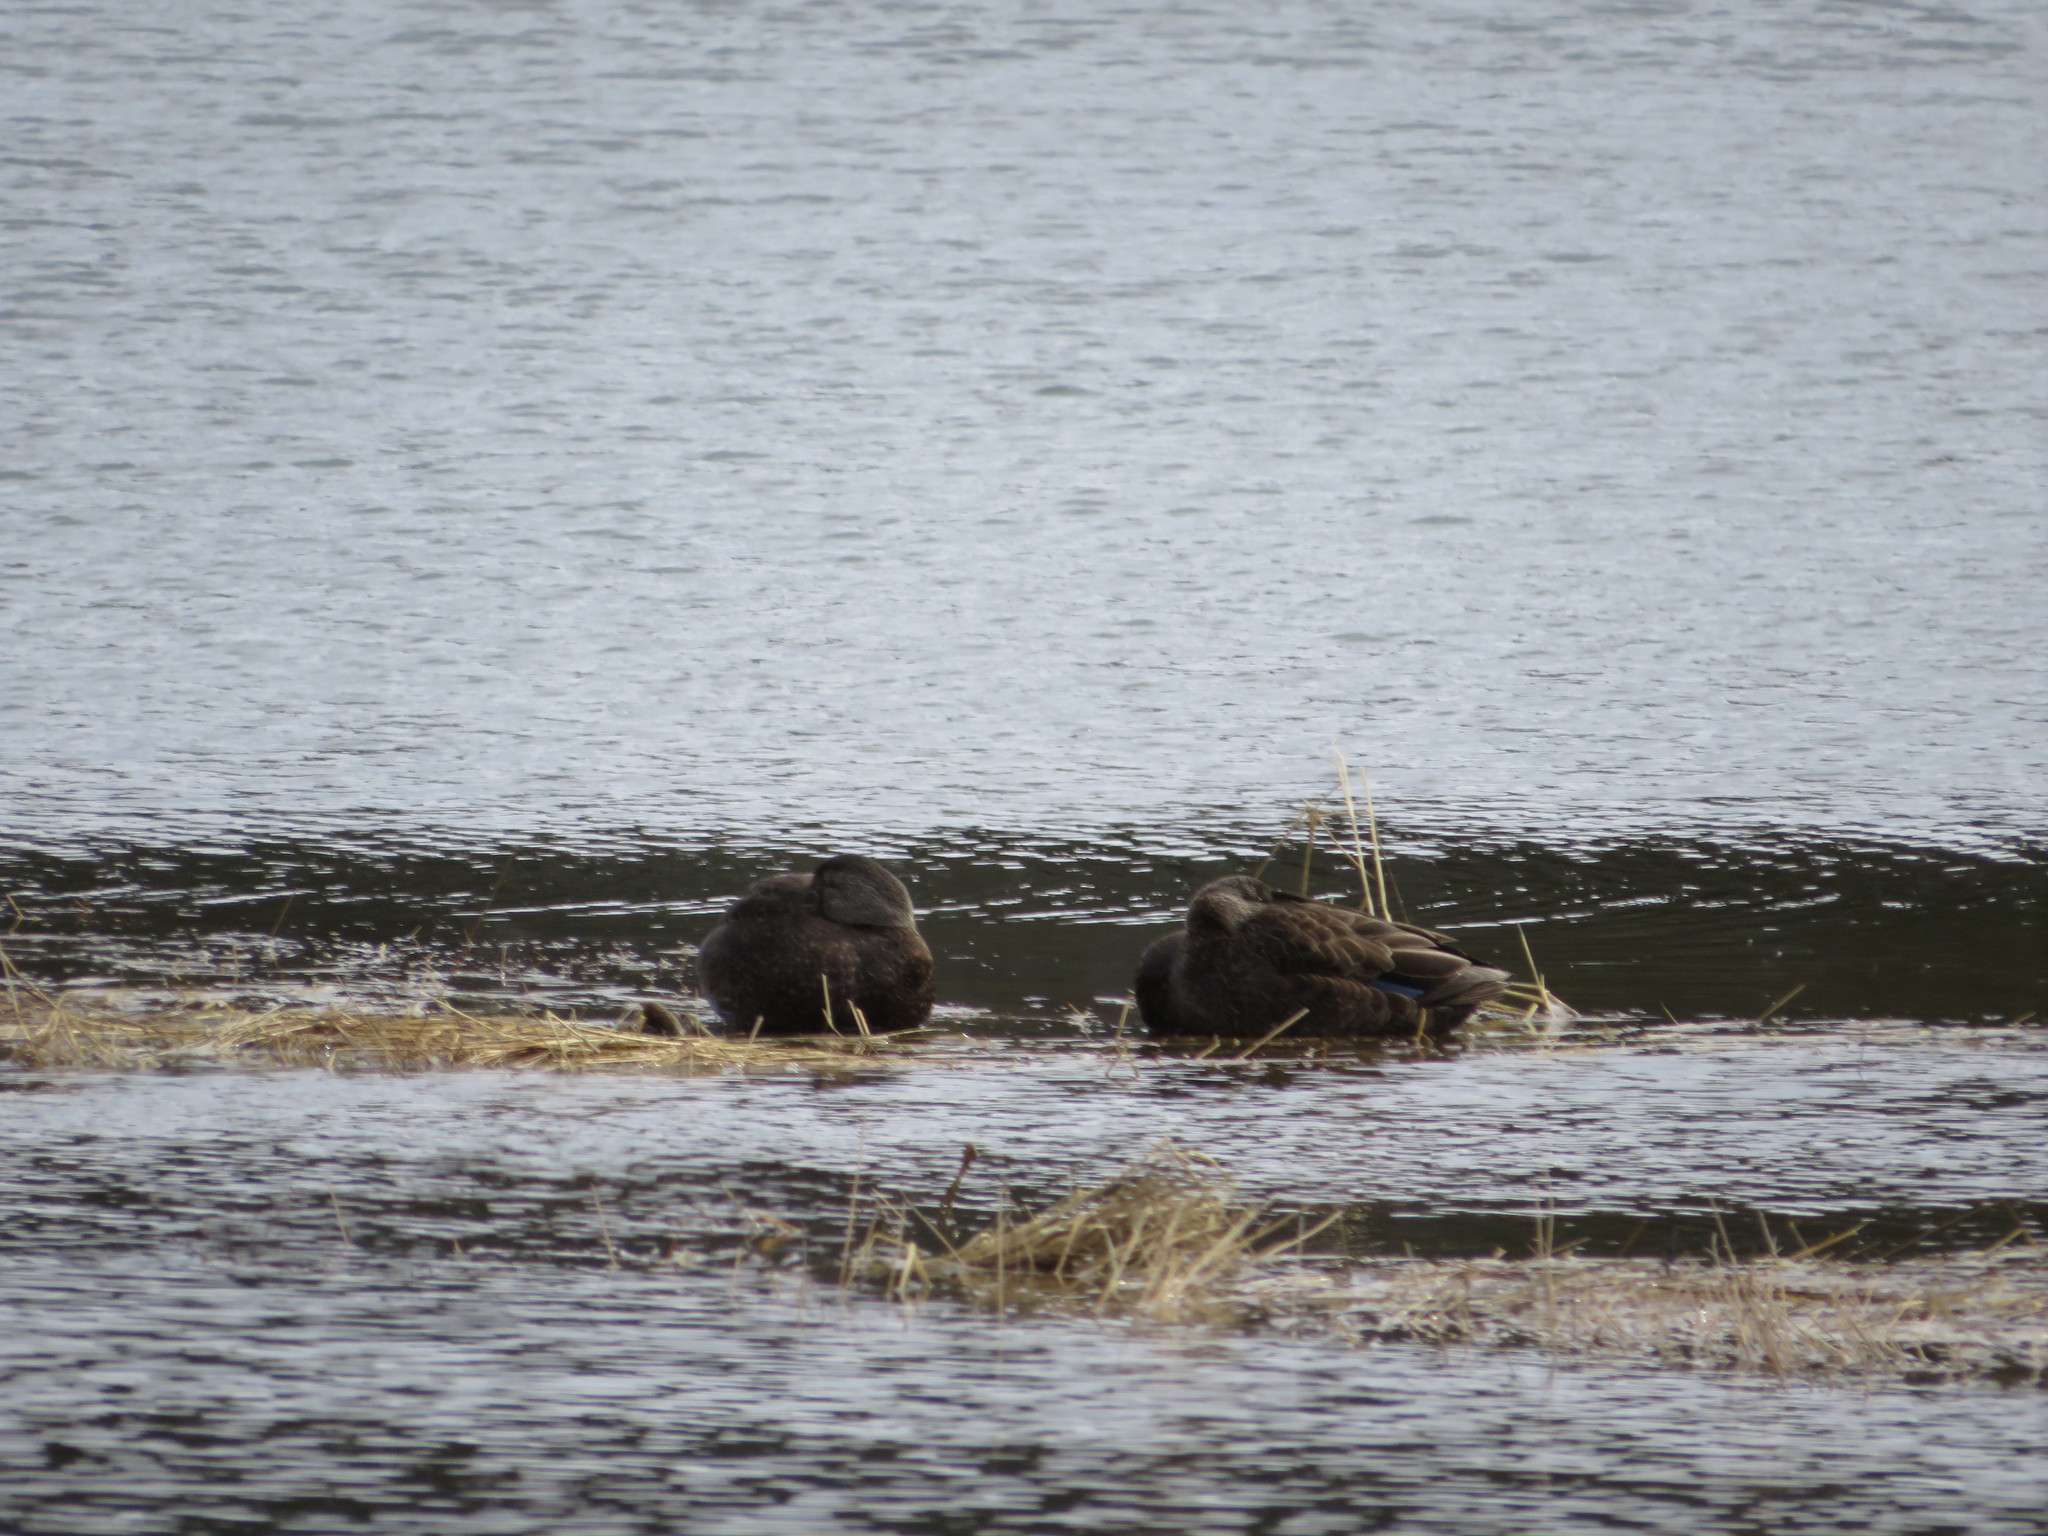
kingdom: Animalia
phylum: Chordata
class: Aves
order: Anseriformes
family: Anatidae
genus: Anas
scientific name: Anas rubripes
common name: American black duck
